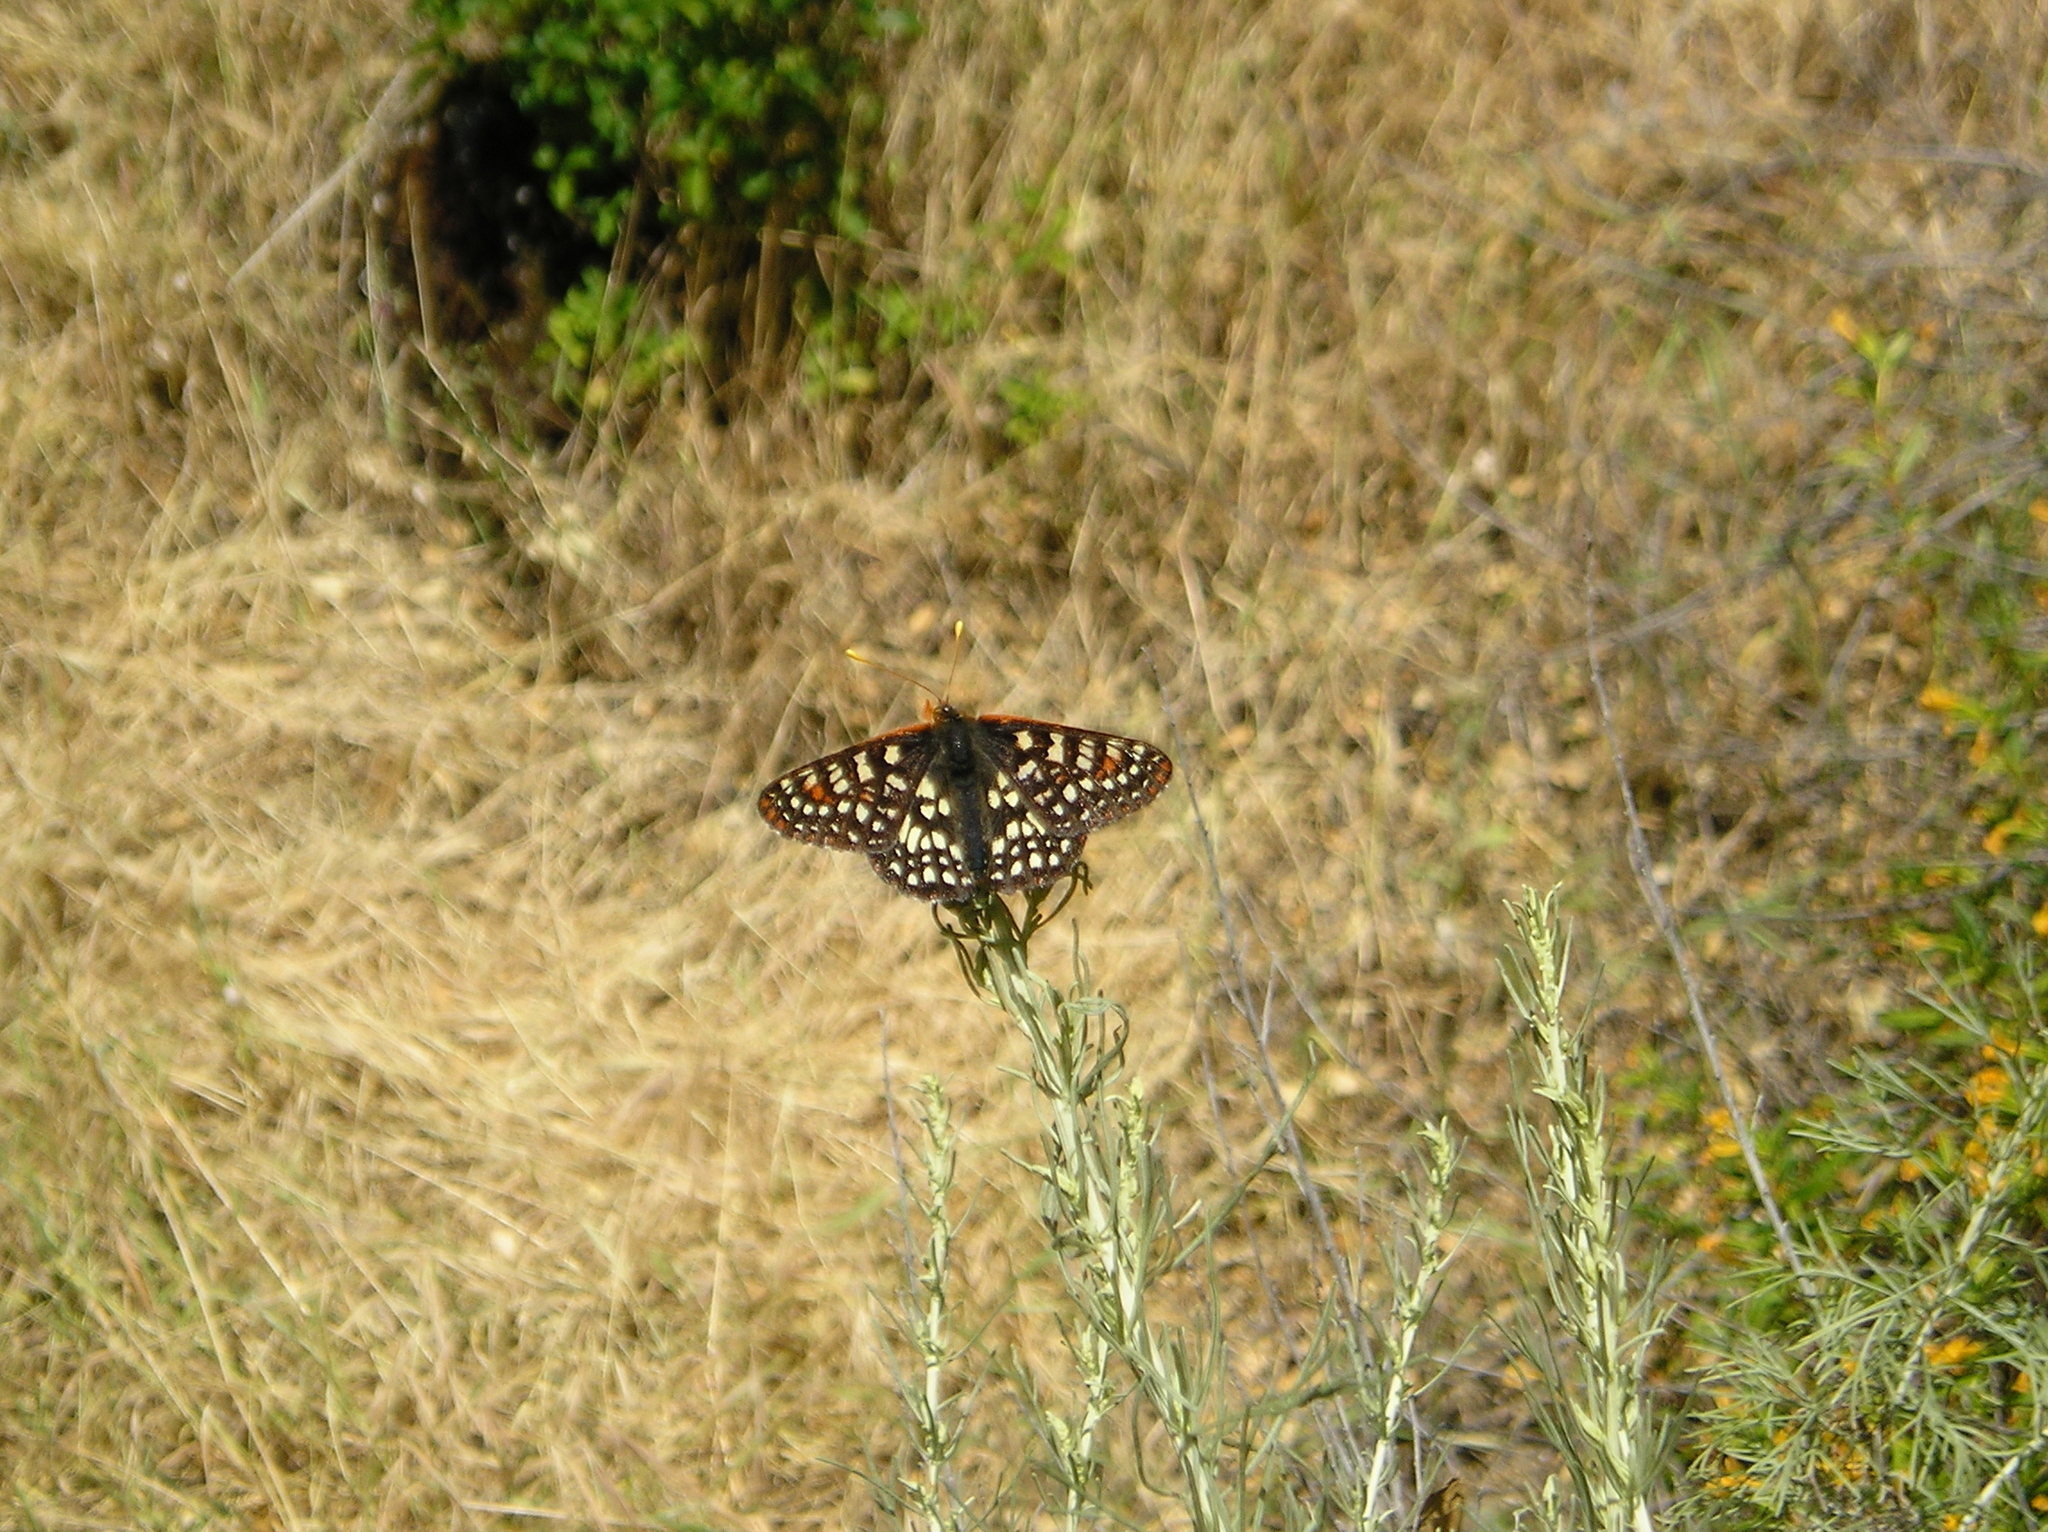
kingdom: Animalia
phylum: Arthropoda
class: Insecta
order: Lepidoptera
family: Nymphalidae
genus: Occidryas
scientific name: Occidryas chalcedona
